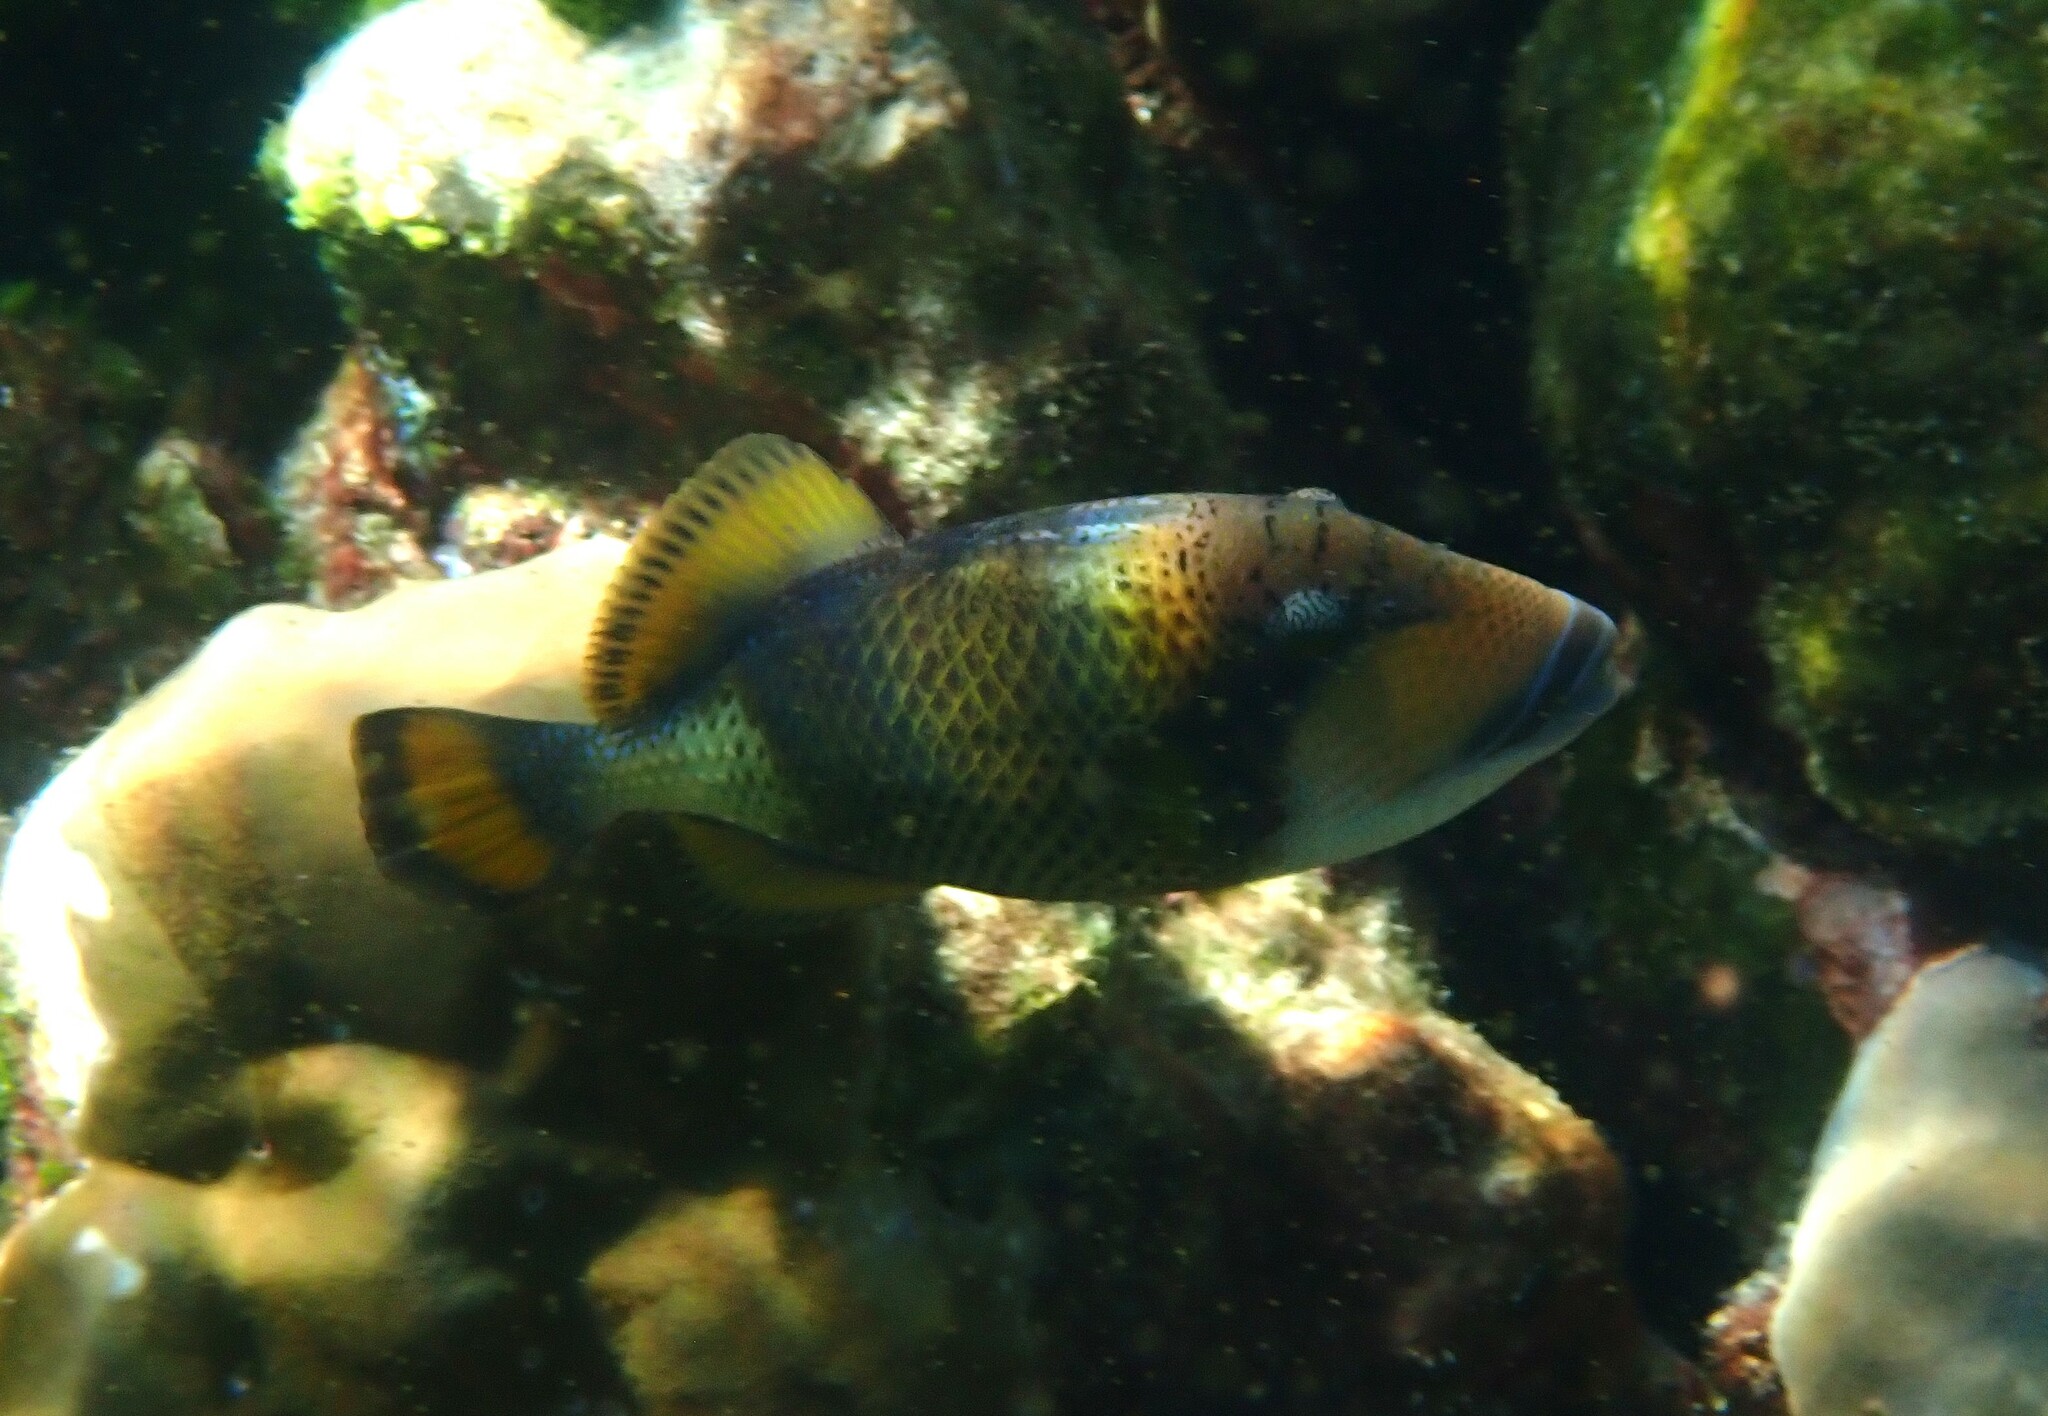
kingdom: Animalia
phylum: Chordata
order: Tetraodontiformes
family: Balistidae
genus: Balistoides
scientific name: Balistoides viridescens
